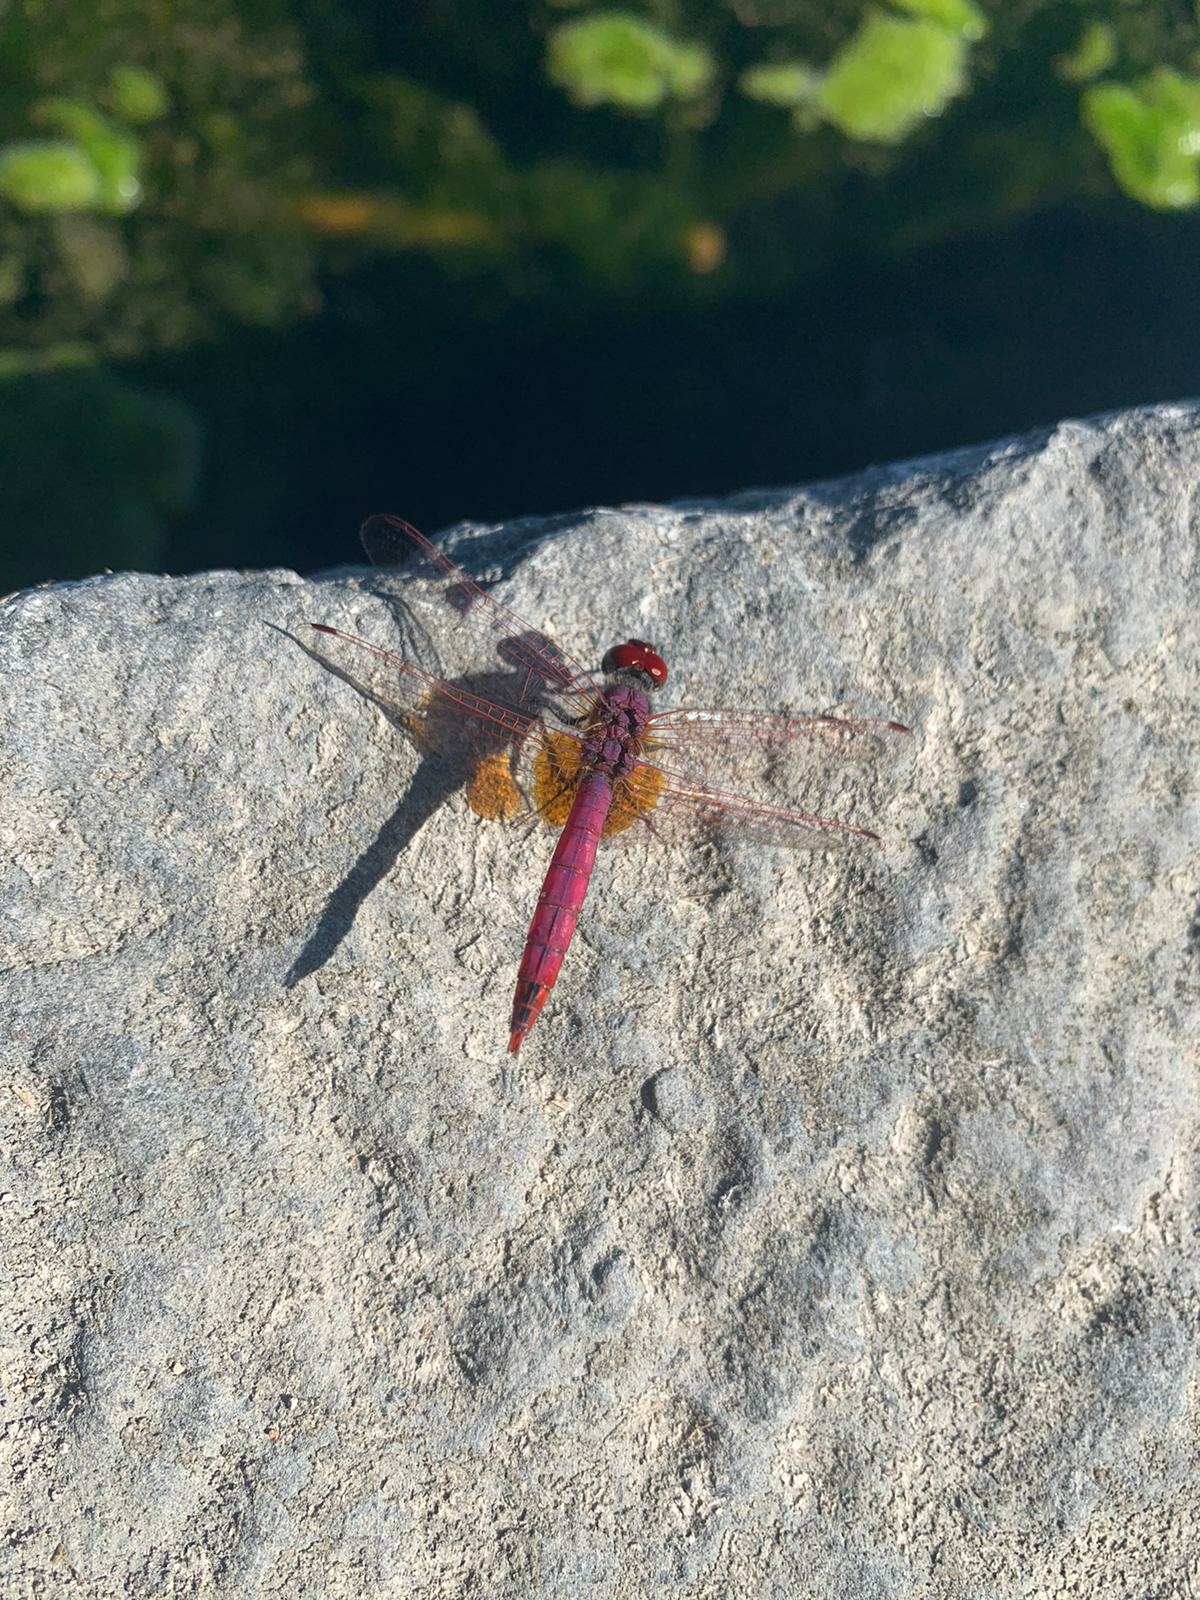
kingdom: Animalia
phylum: Arthropoda
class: Insecta
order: Odonata
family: Libellulidae
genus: Trithemis
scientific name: Trithemis annulata
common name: Violet dropwing
